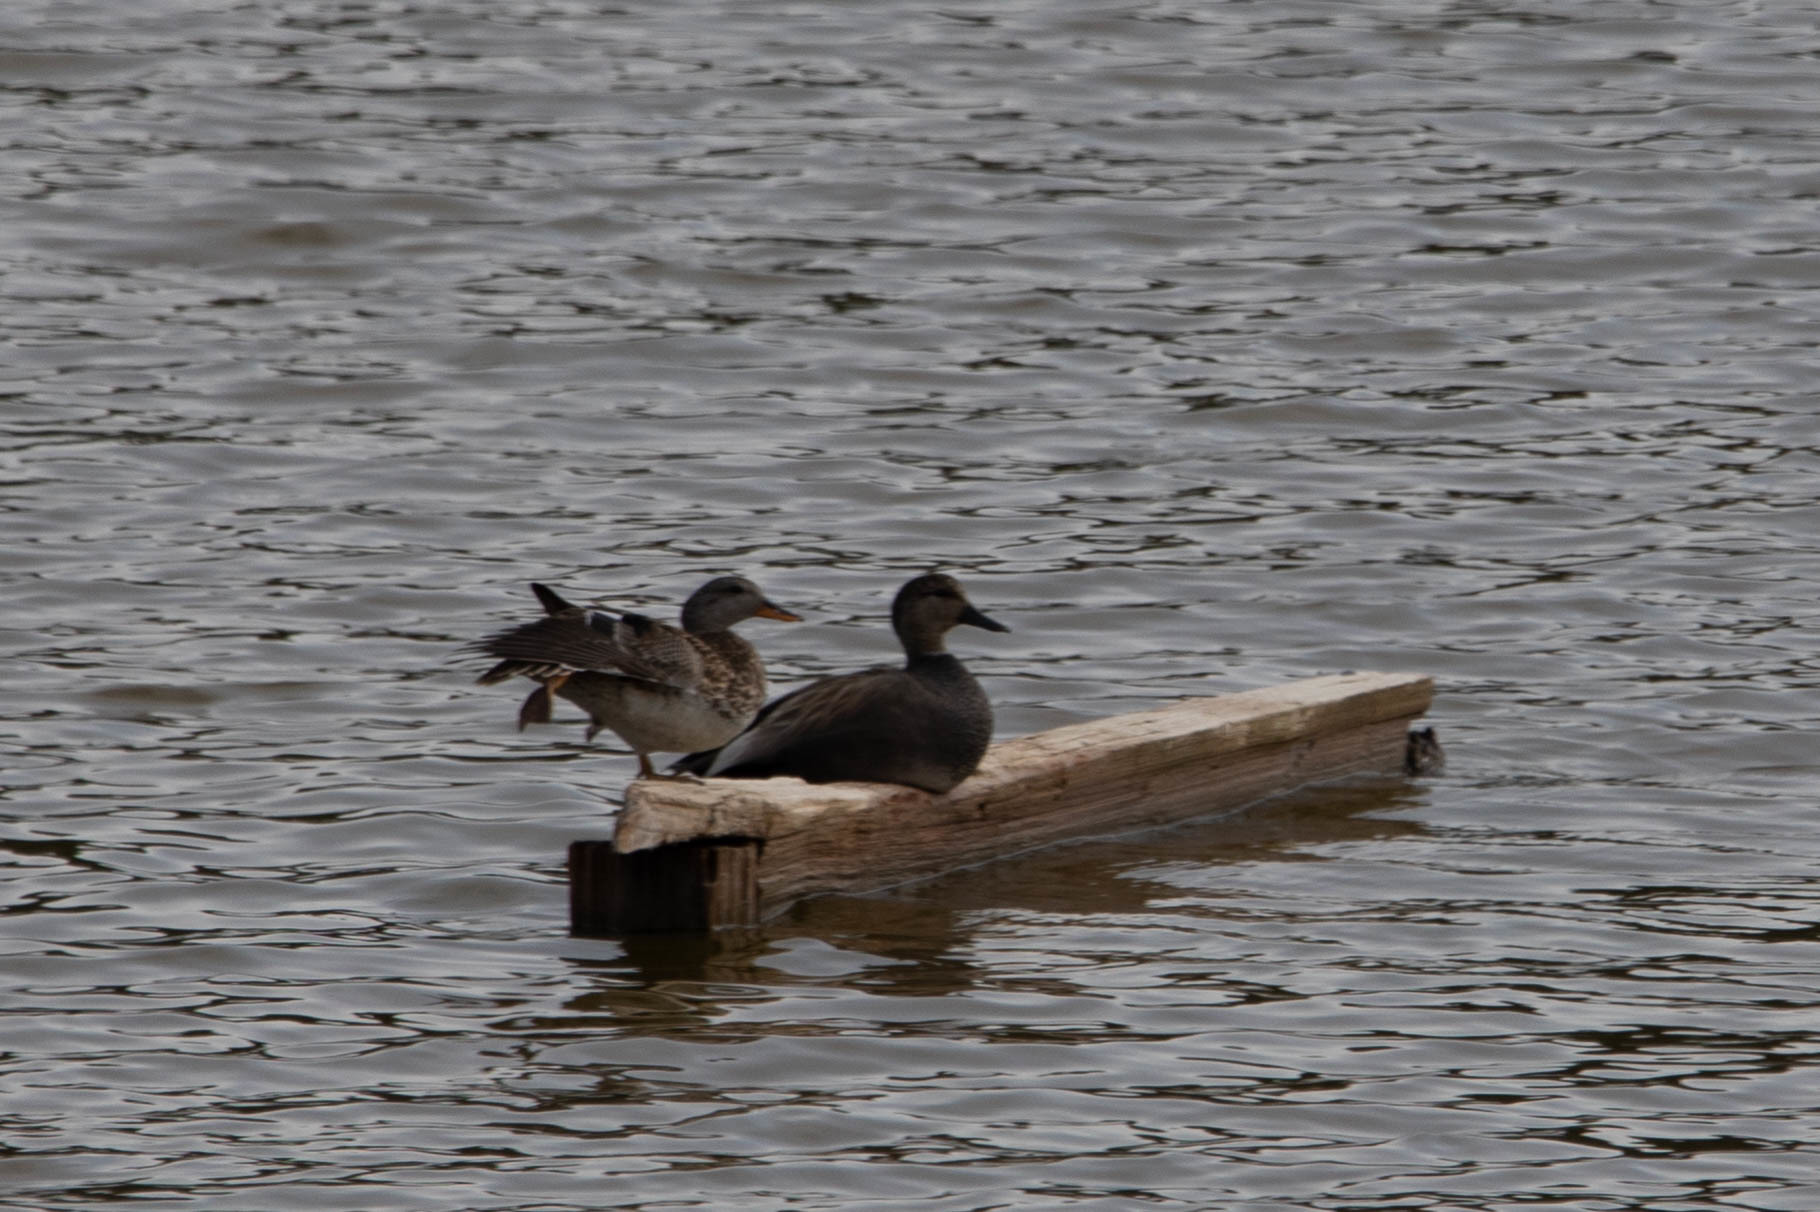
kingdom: Animalia
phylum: Chordata
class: Aves
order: Anseriformes
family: Anatidae
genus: Mareca
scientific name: Mareca strepera
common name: Gadwall
